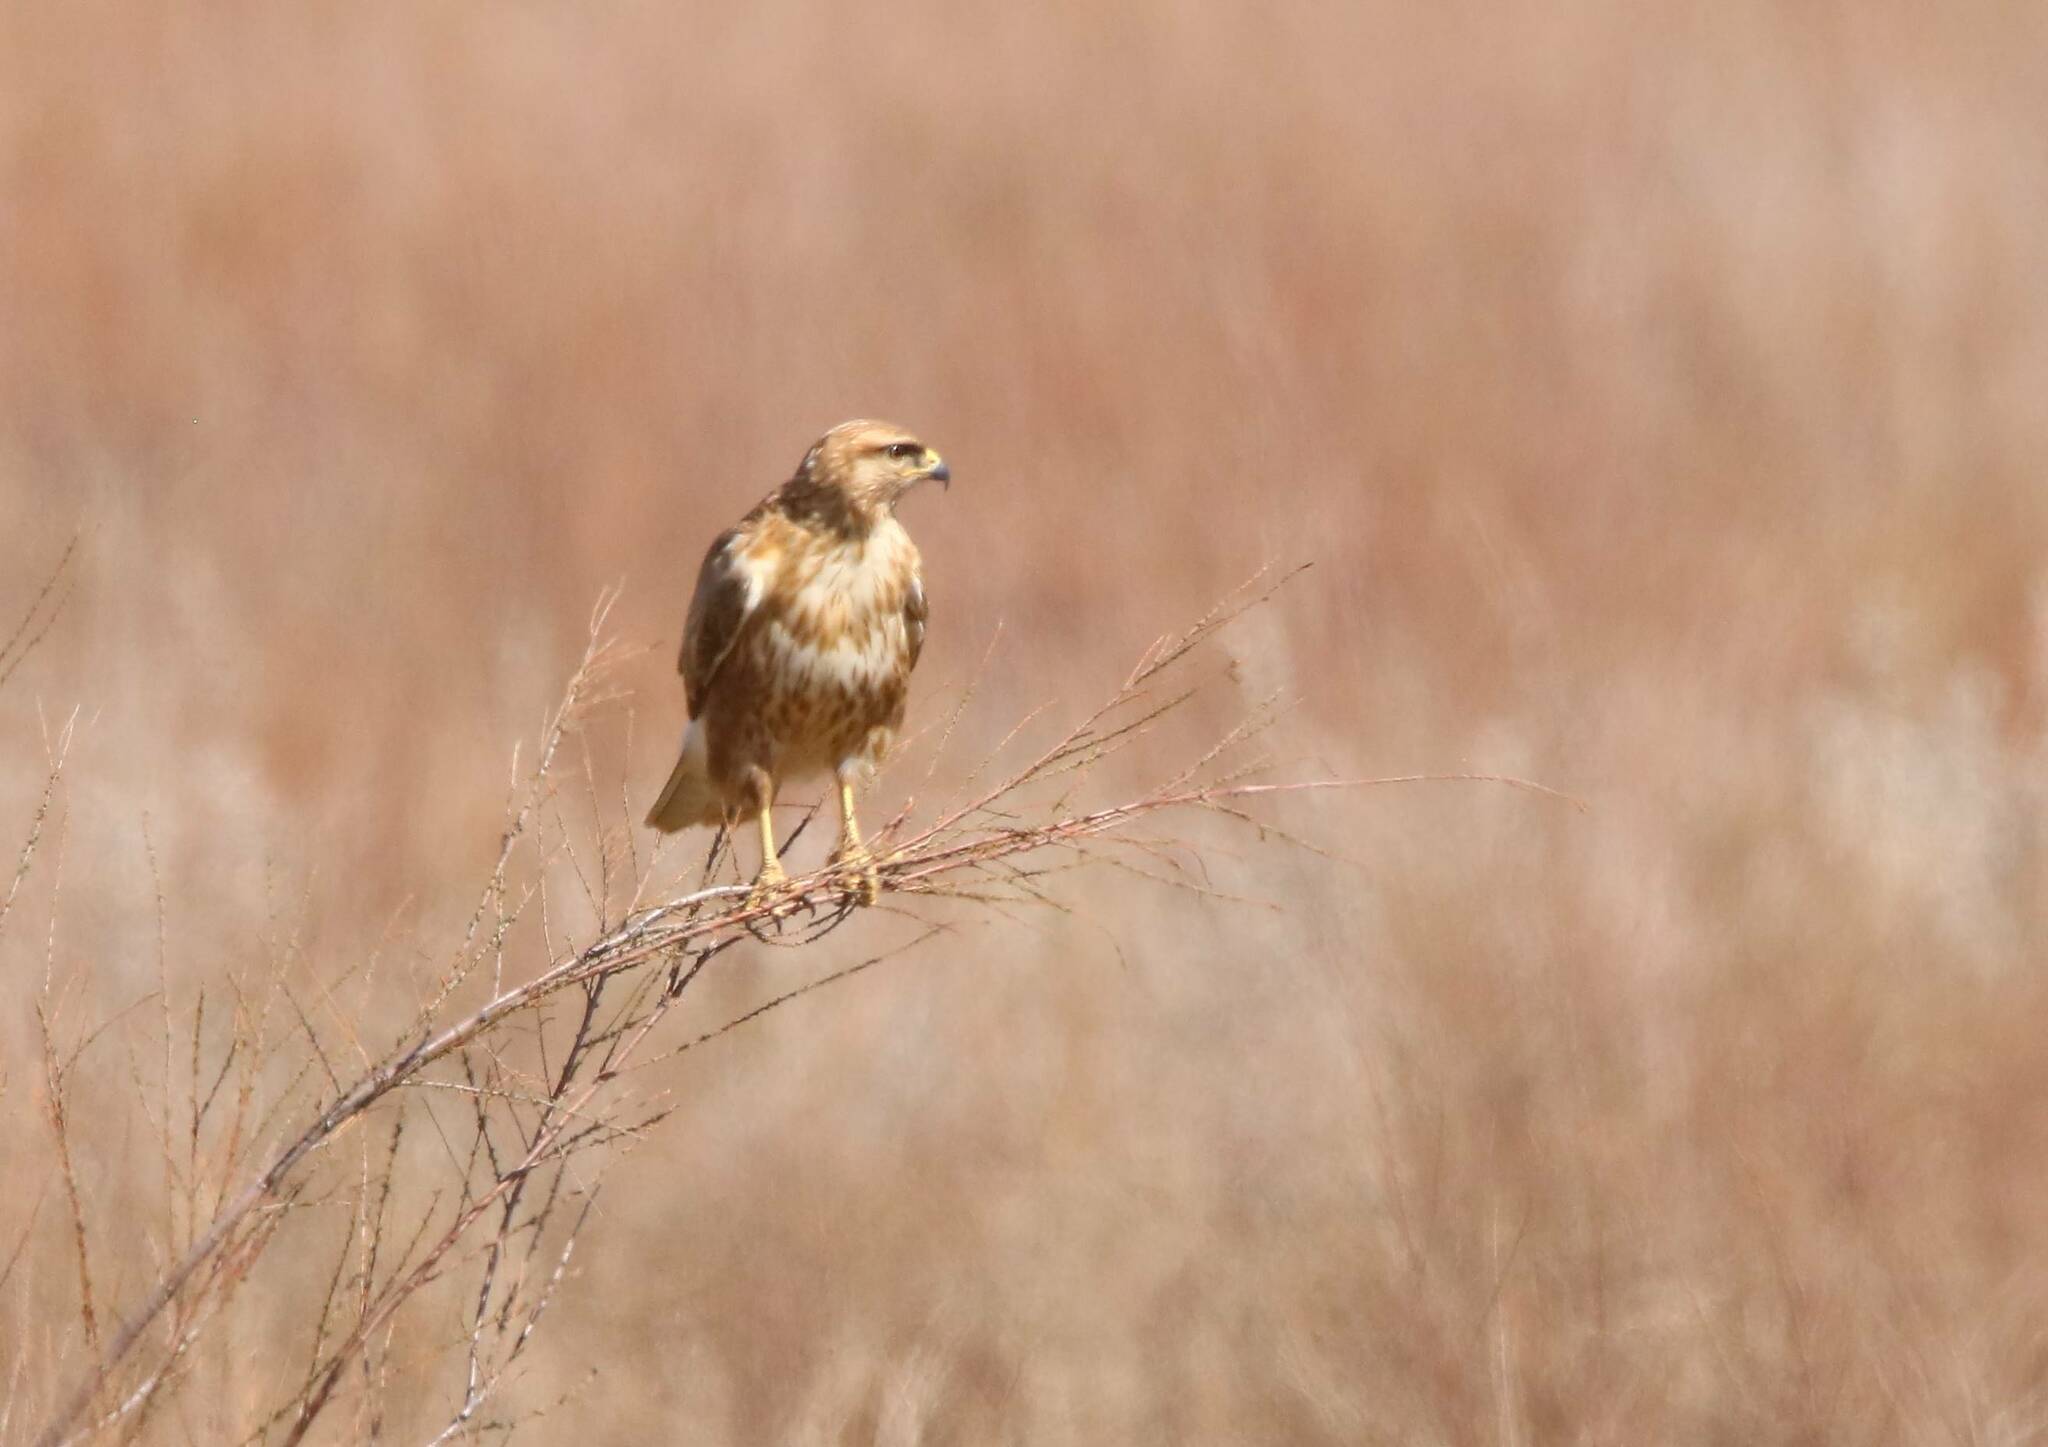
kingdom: Animalia
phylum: Chordata
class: Aves
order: Accipitriformes
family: Accipitridae
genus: Buteo
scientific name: Buteo rufinus
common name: Long-legged buzzard
